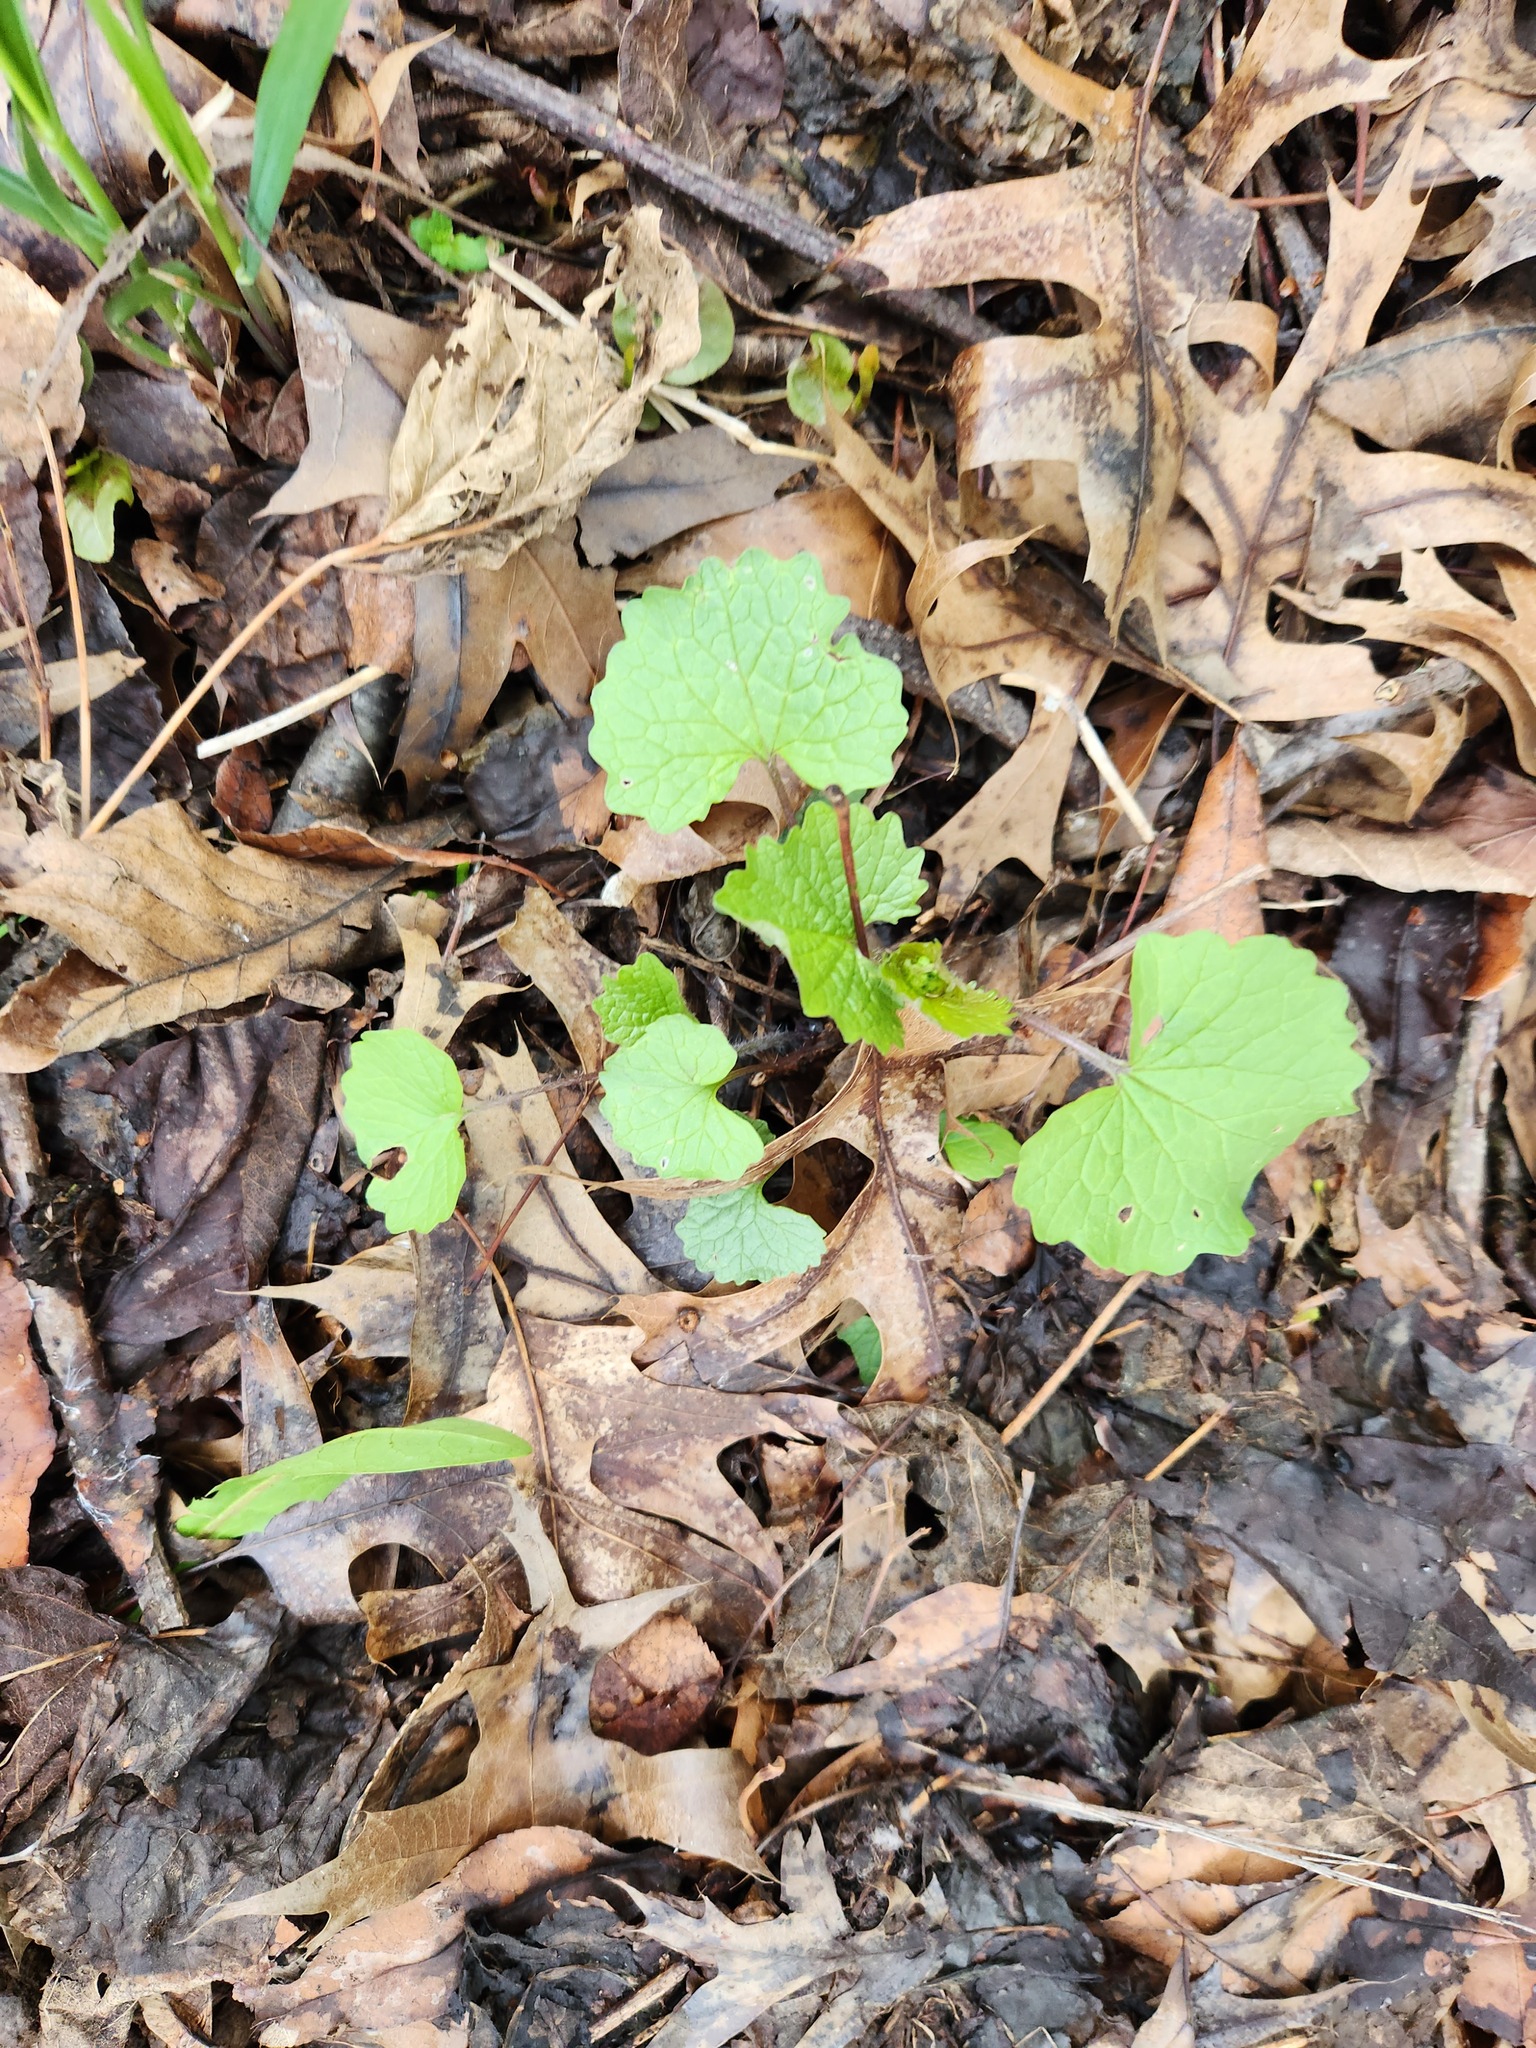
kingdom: Plantae
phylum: Tracheophyta
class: Magnoliopsida
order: Brassicales
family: Brassicaceae
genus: Alliaria
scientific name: Alliaria petiolata
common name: Garlic mustard
